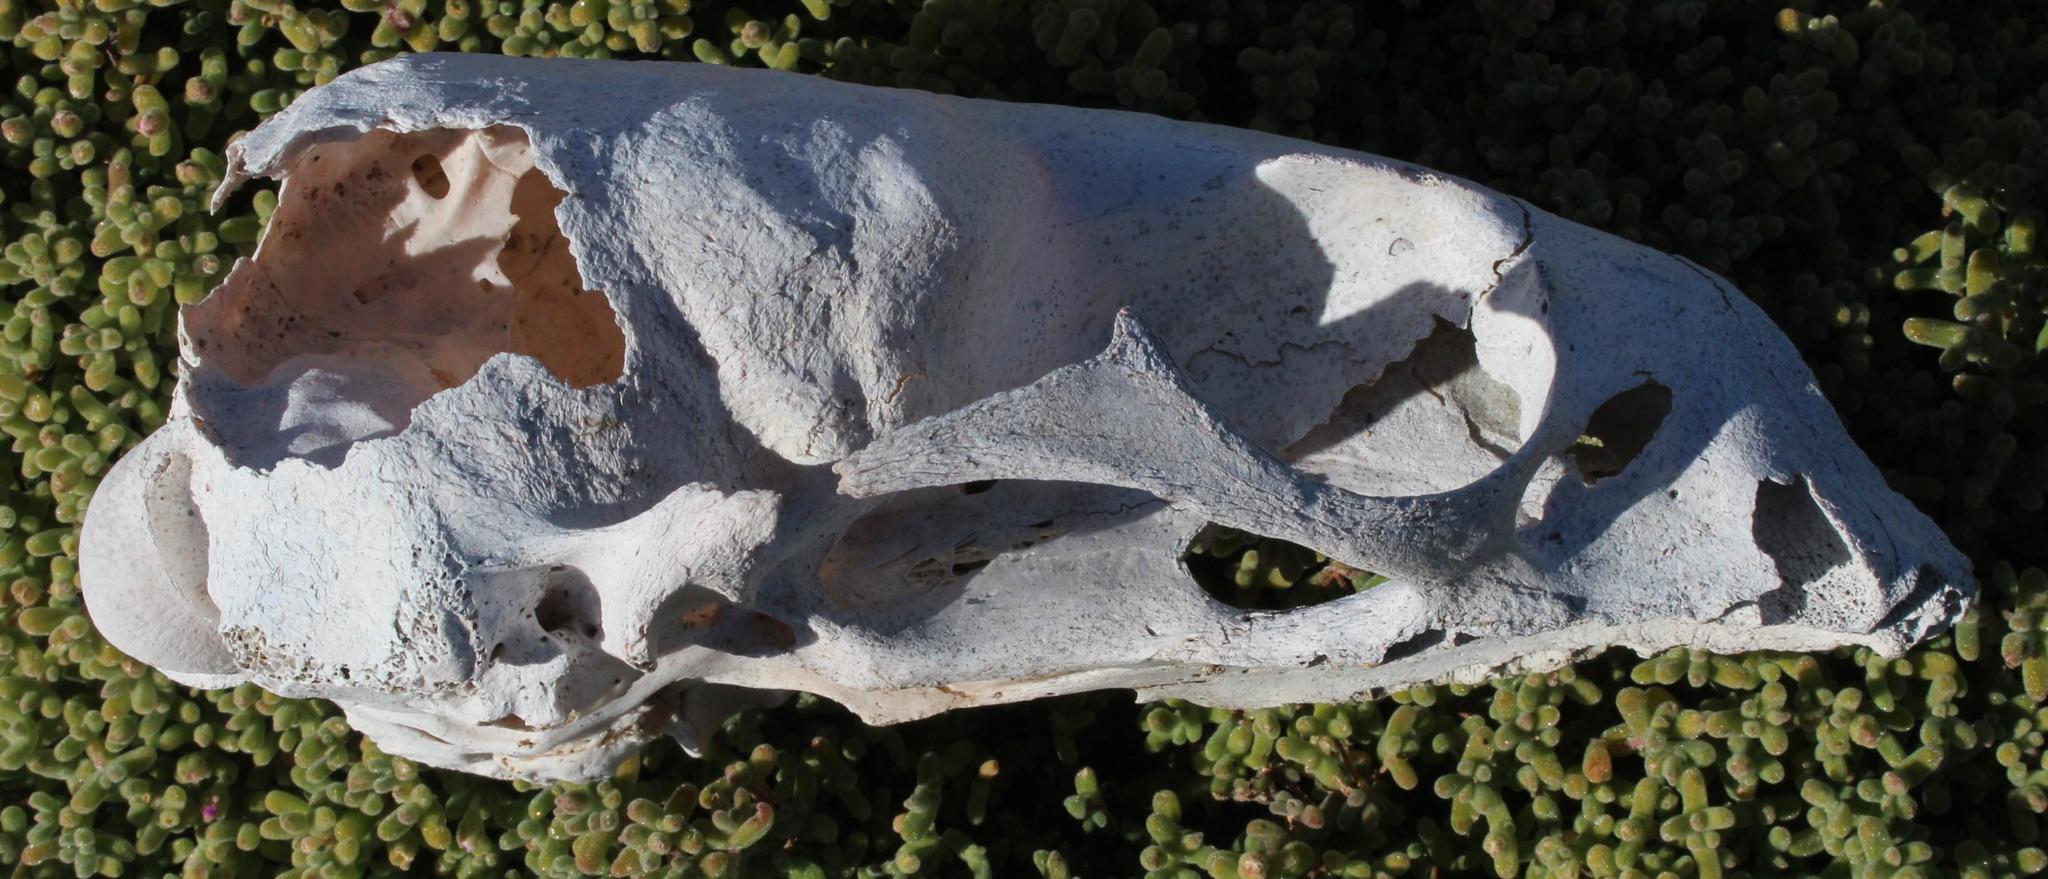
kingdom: Animalia
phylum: Chordata
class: Mammalia
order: Carnivora
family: Otariidae
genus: Arctocephalus
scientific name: Arctocephalus pusillus
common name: Brown fur seal
